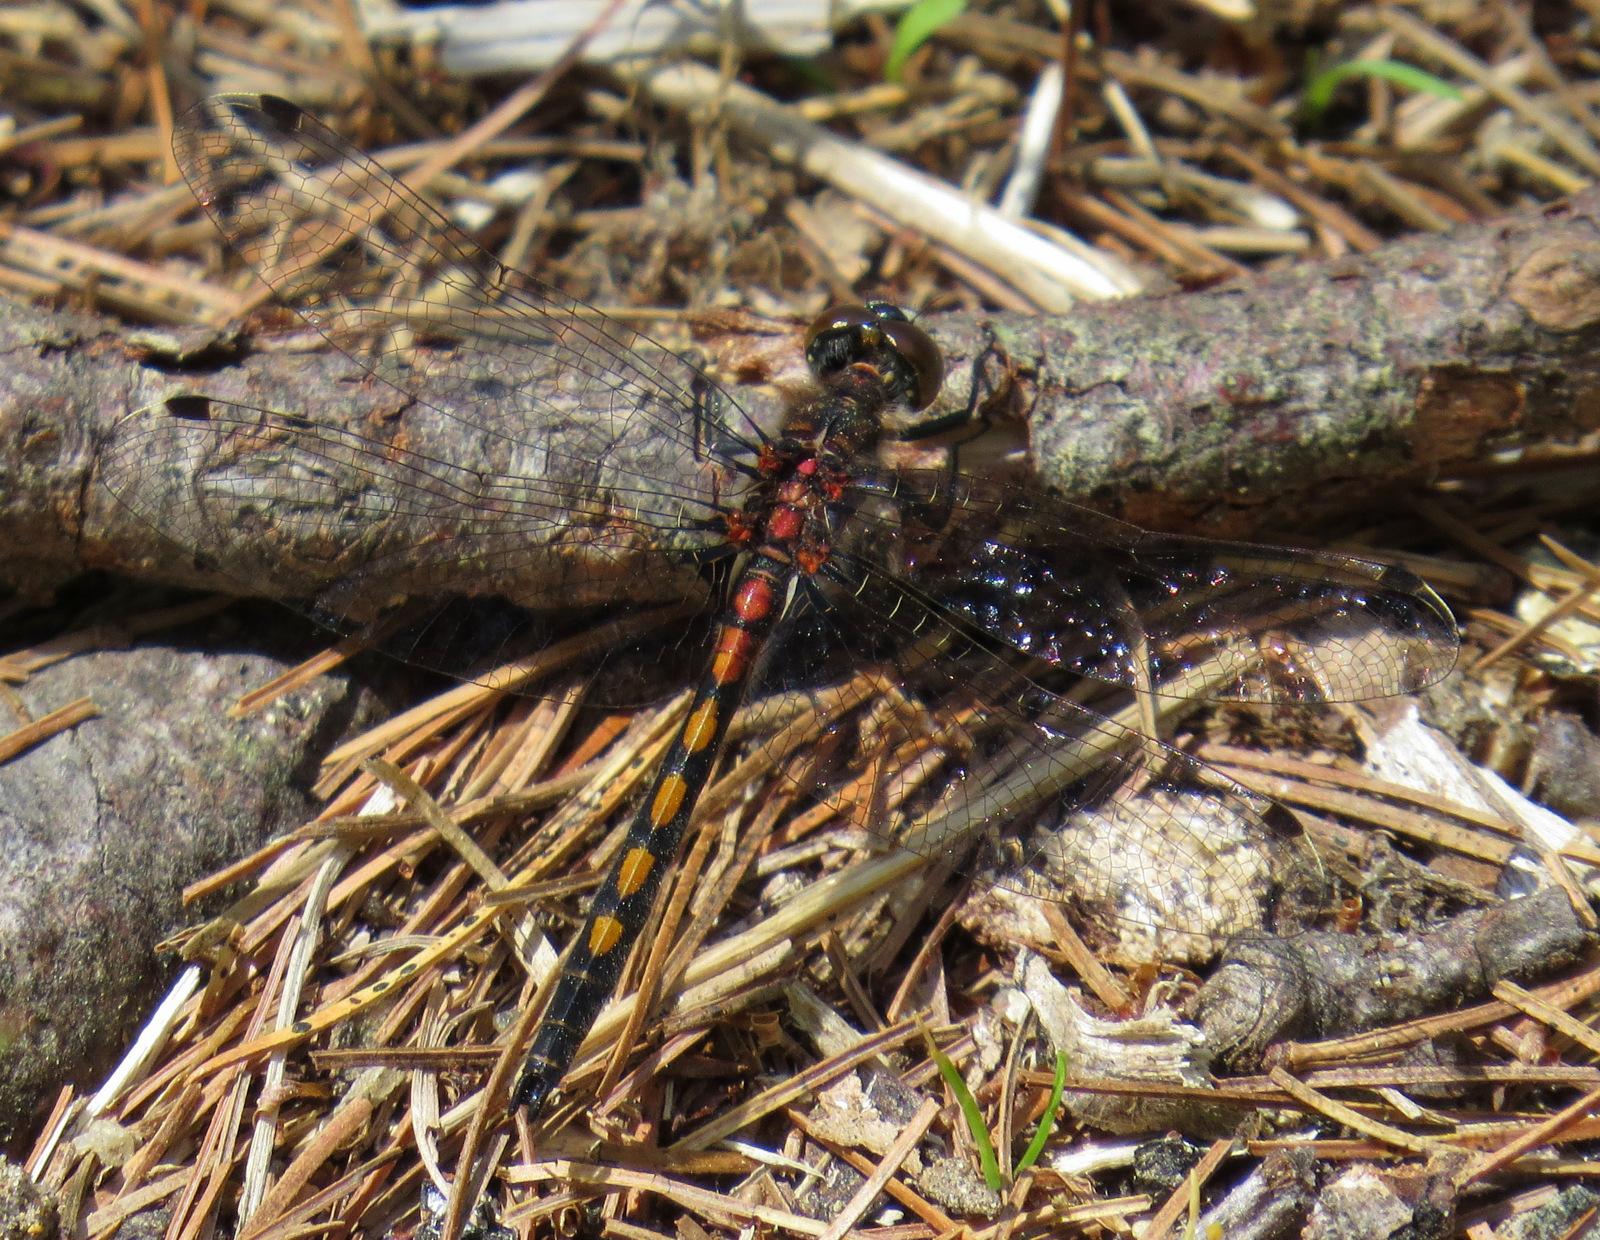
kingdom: Animalia
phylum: Arthropoda
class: Insecta
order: Odonata
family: Libellulidae
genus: Leucorrhinia
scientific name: Leucorrhinia hudsonica
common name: Hudsonian whiteface
